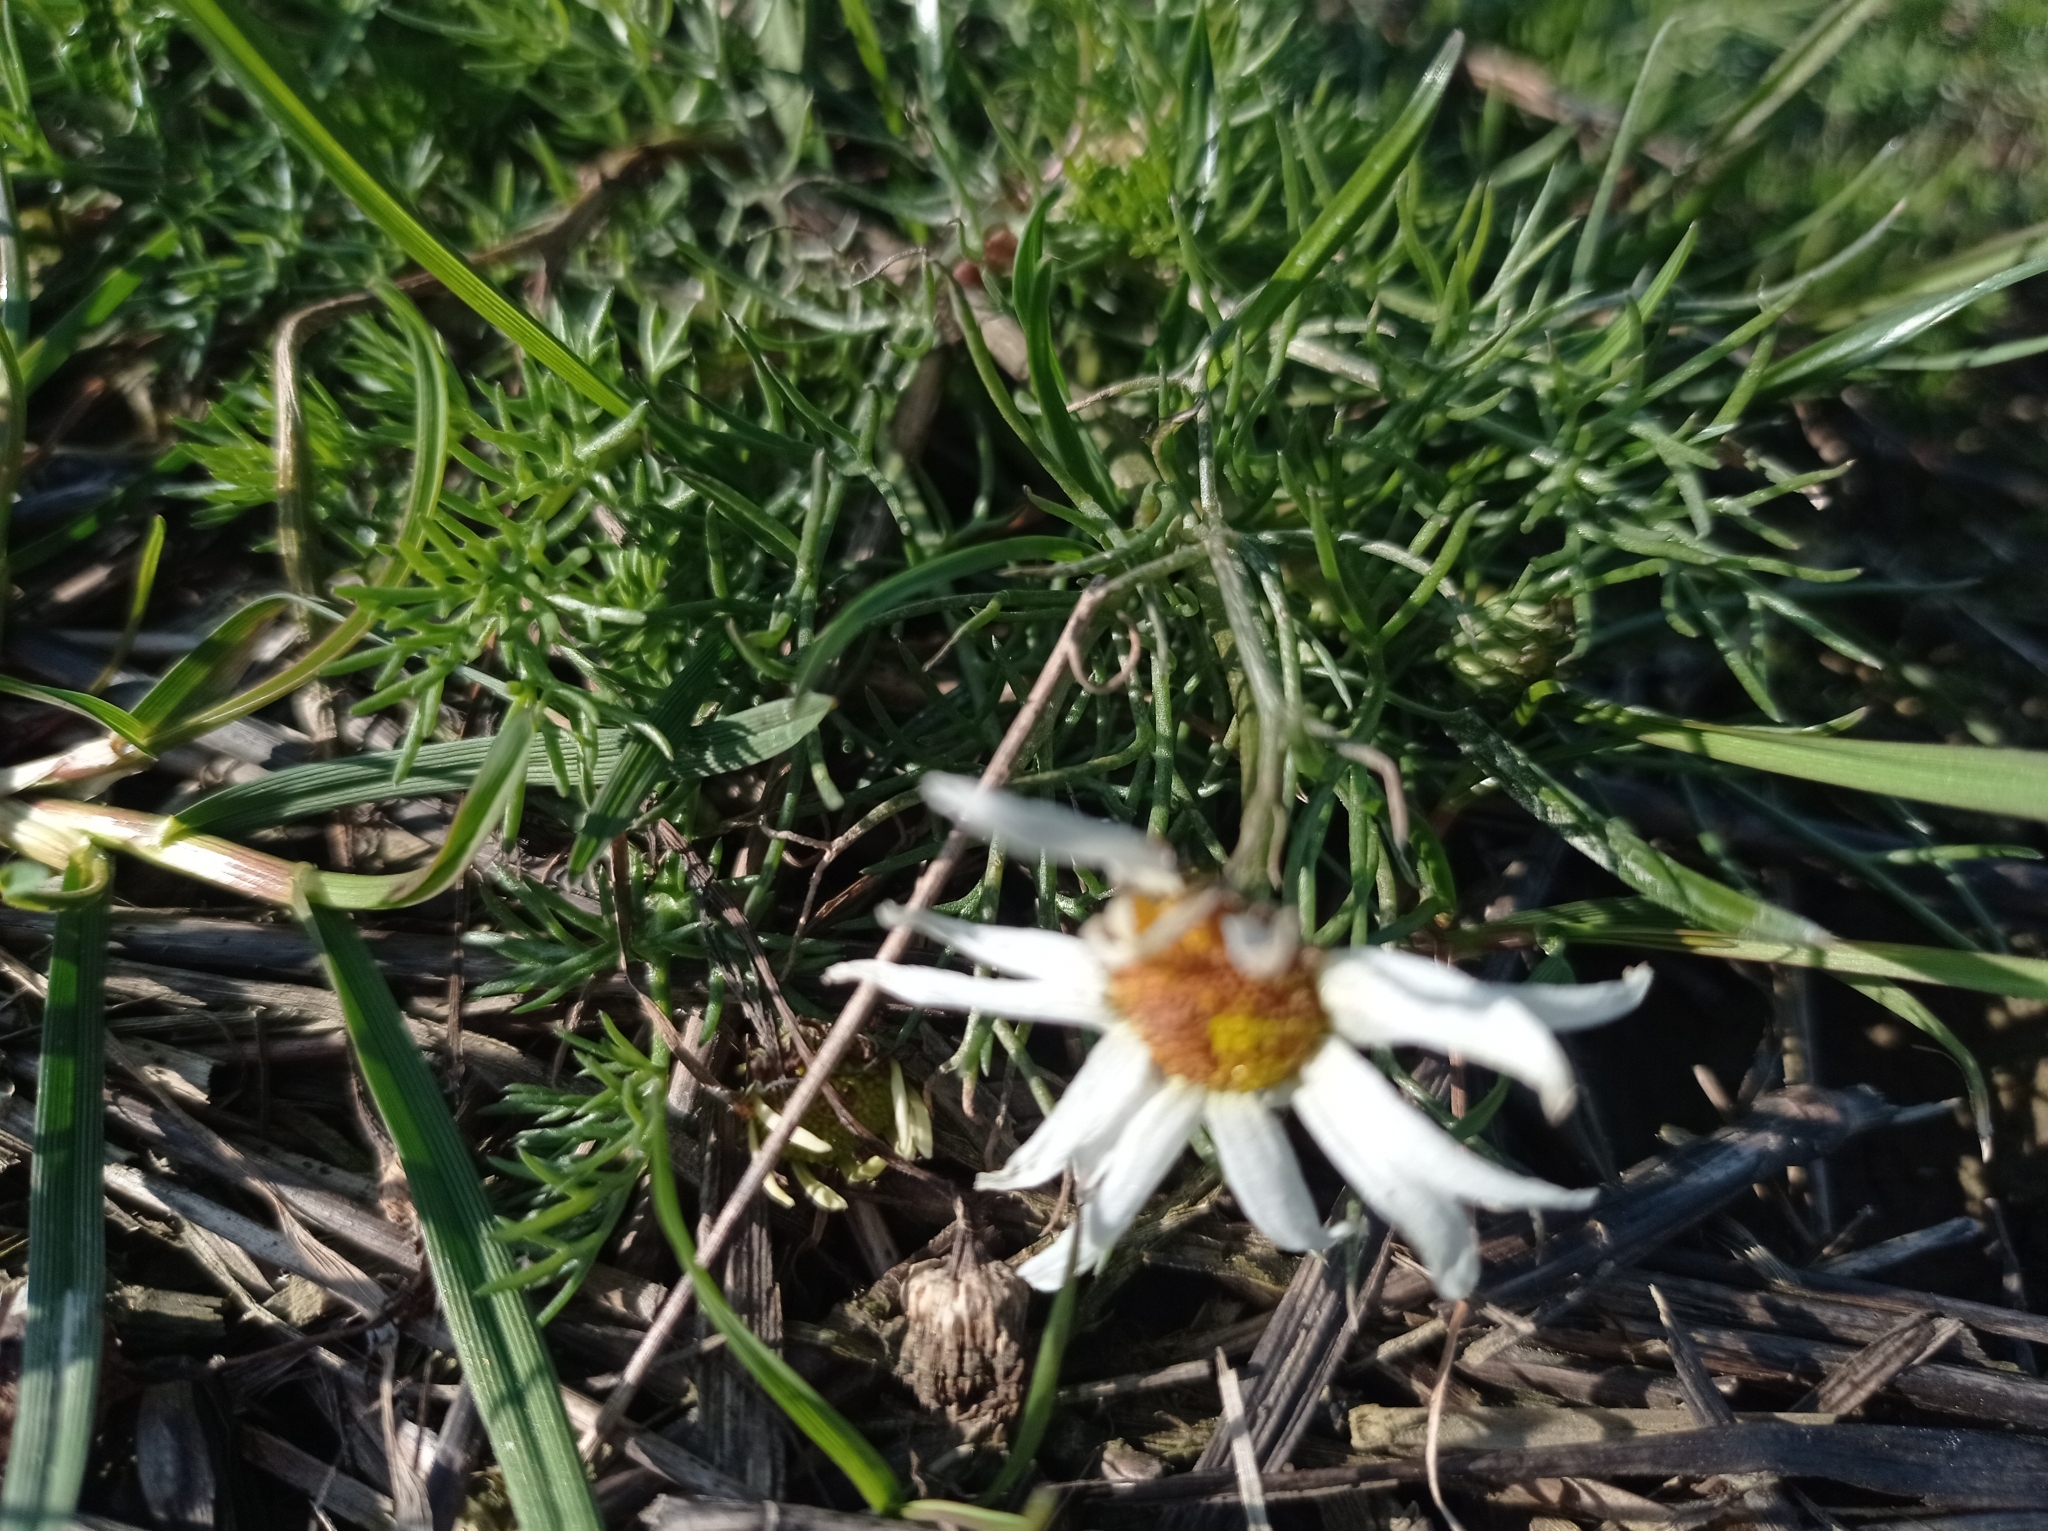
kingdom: Plantae
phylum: Tracheophyta
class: Magnoliopsida
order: Asterales
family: Asteraceae
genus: Tripleurospermum
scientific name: Tripleurospermum inodorum
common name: Scentless mayweed
